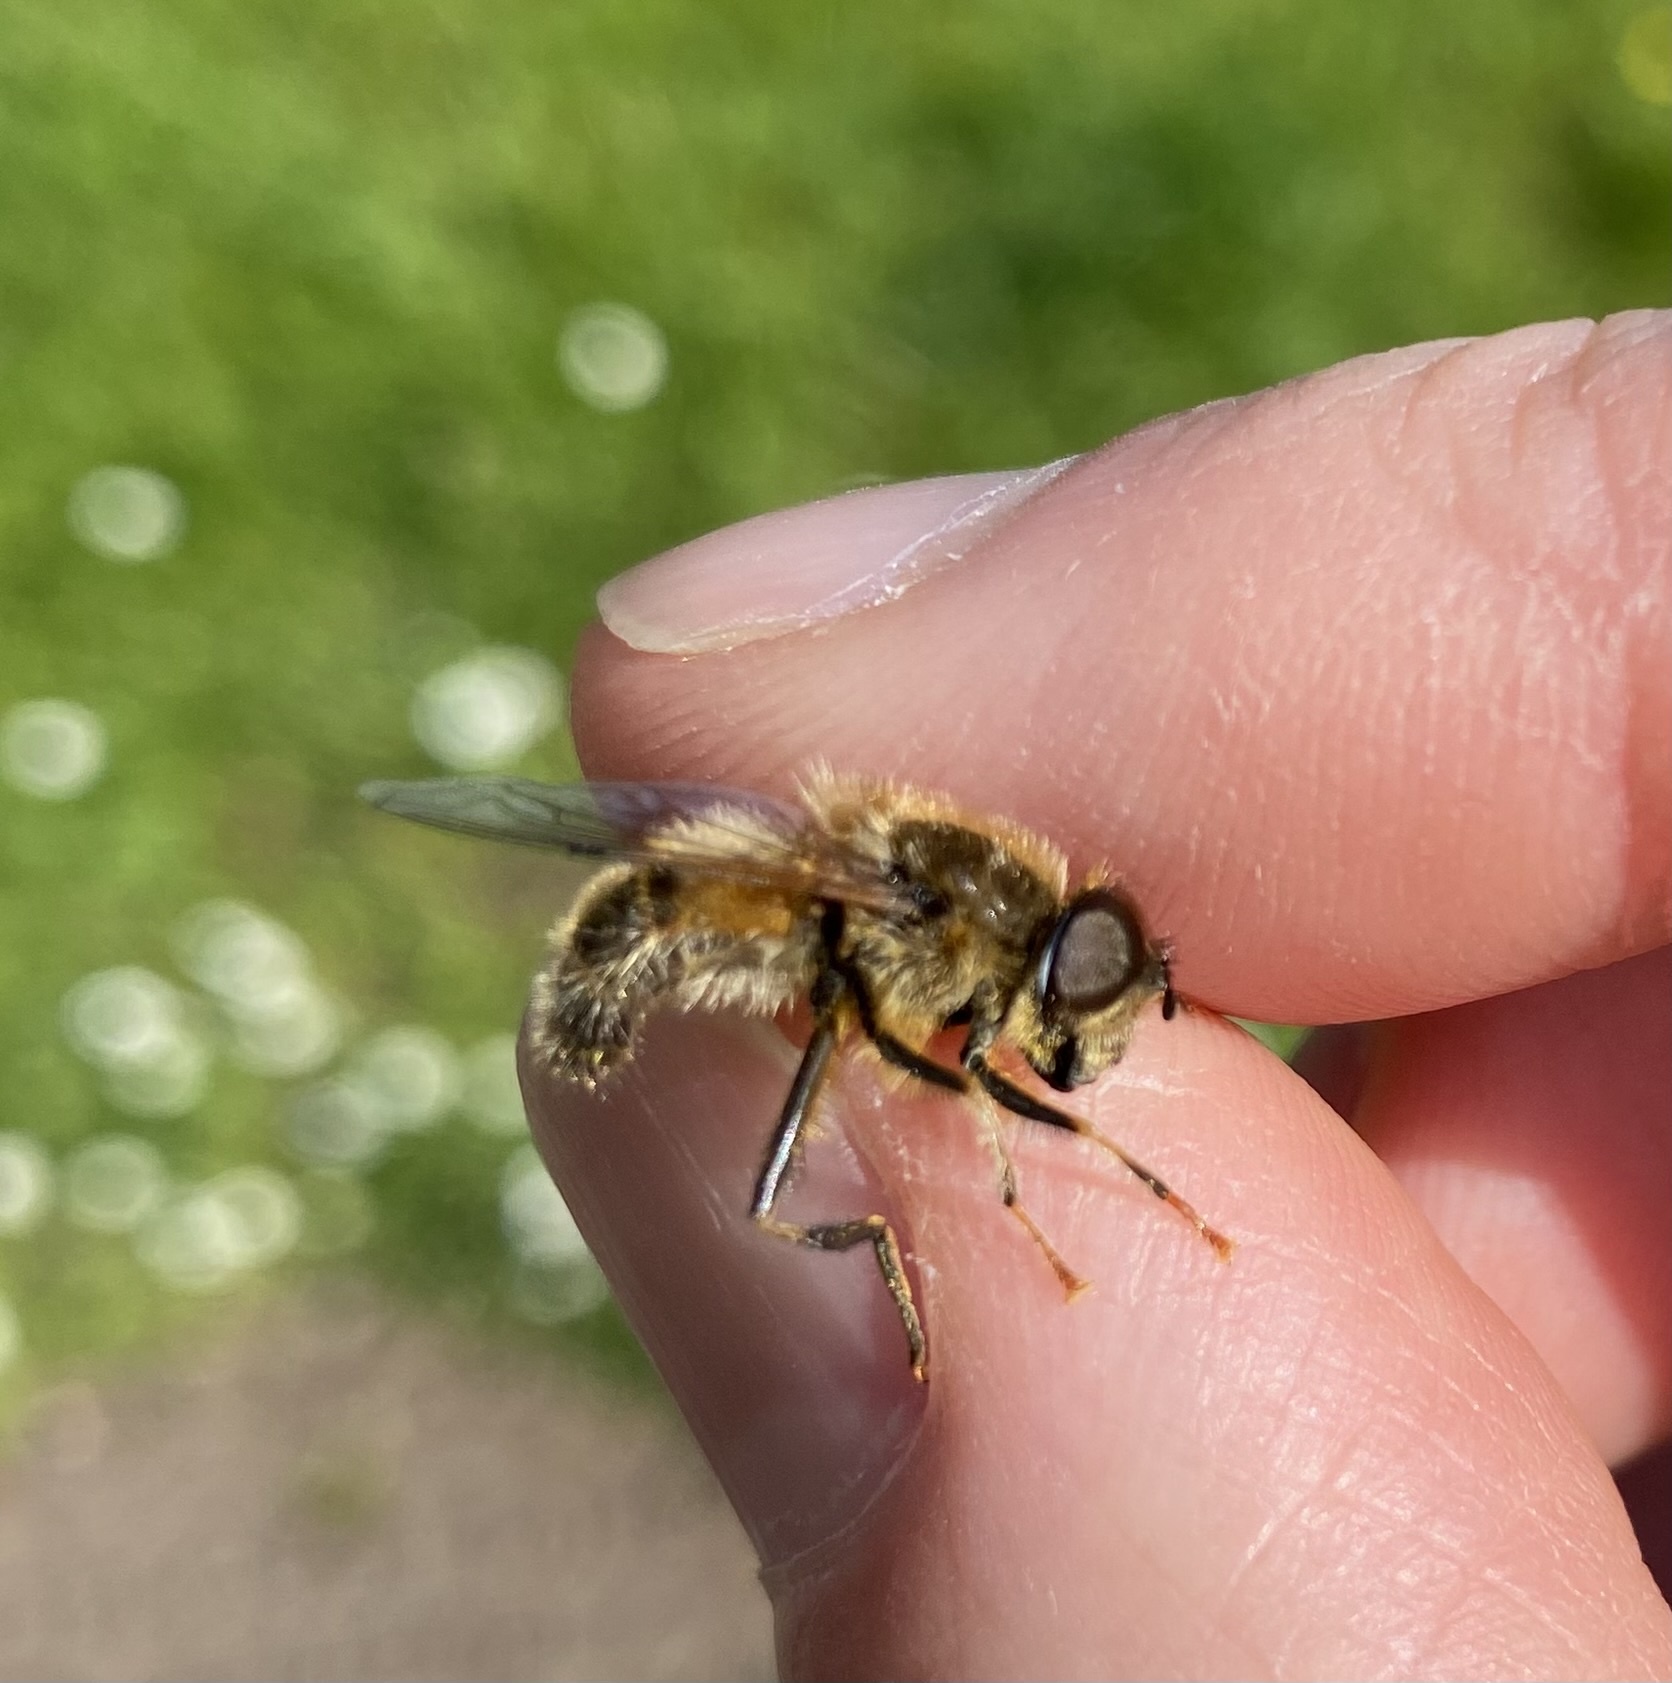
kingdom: Animalia
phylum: Arthropoda
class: Insecta
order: Diptera
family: Syrphidae
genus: Eristalis
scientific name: Eristalis pertinax
